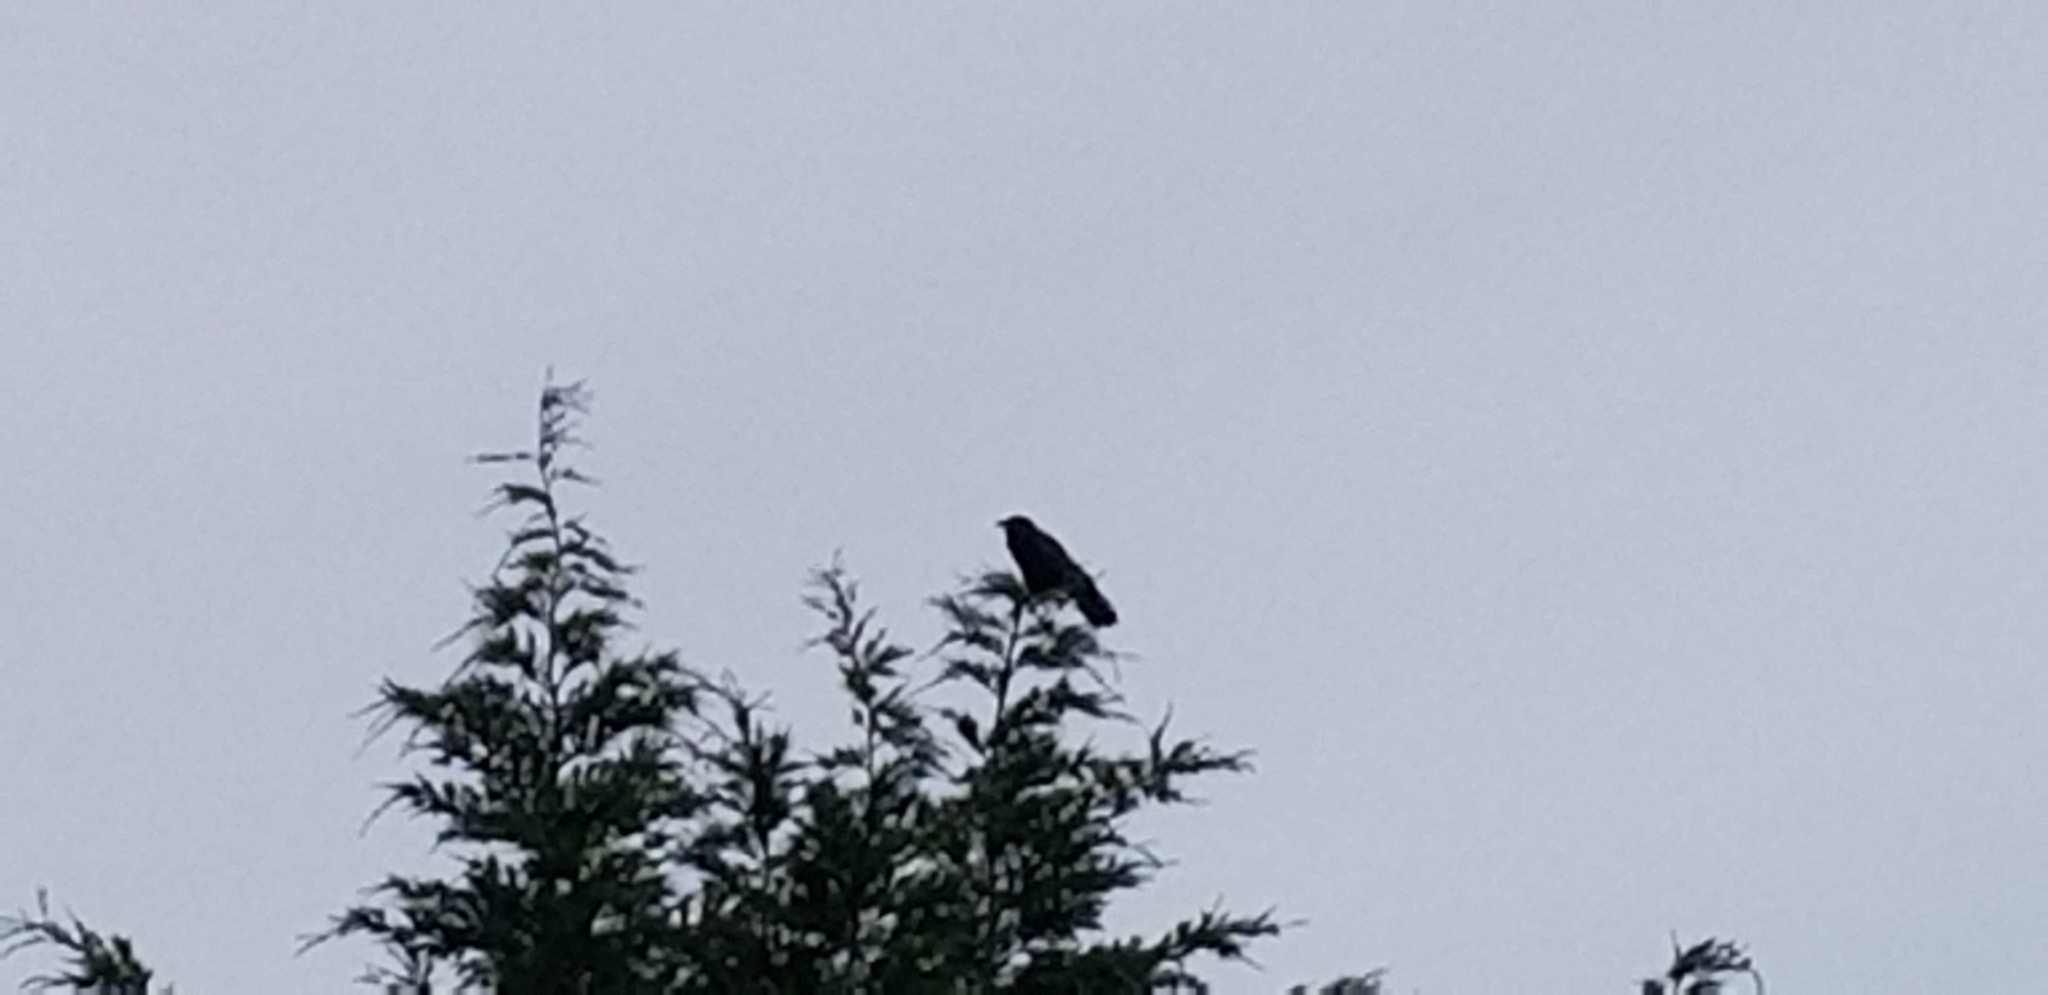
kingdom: Animalia
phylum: Chordata
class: Aves
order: Passeriformes
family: Corvidae
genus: Corvus
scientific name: Corvus corax
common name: Common raven
